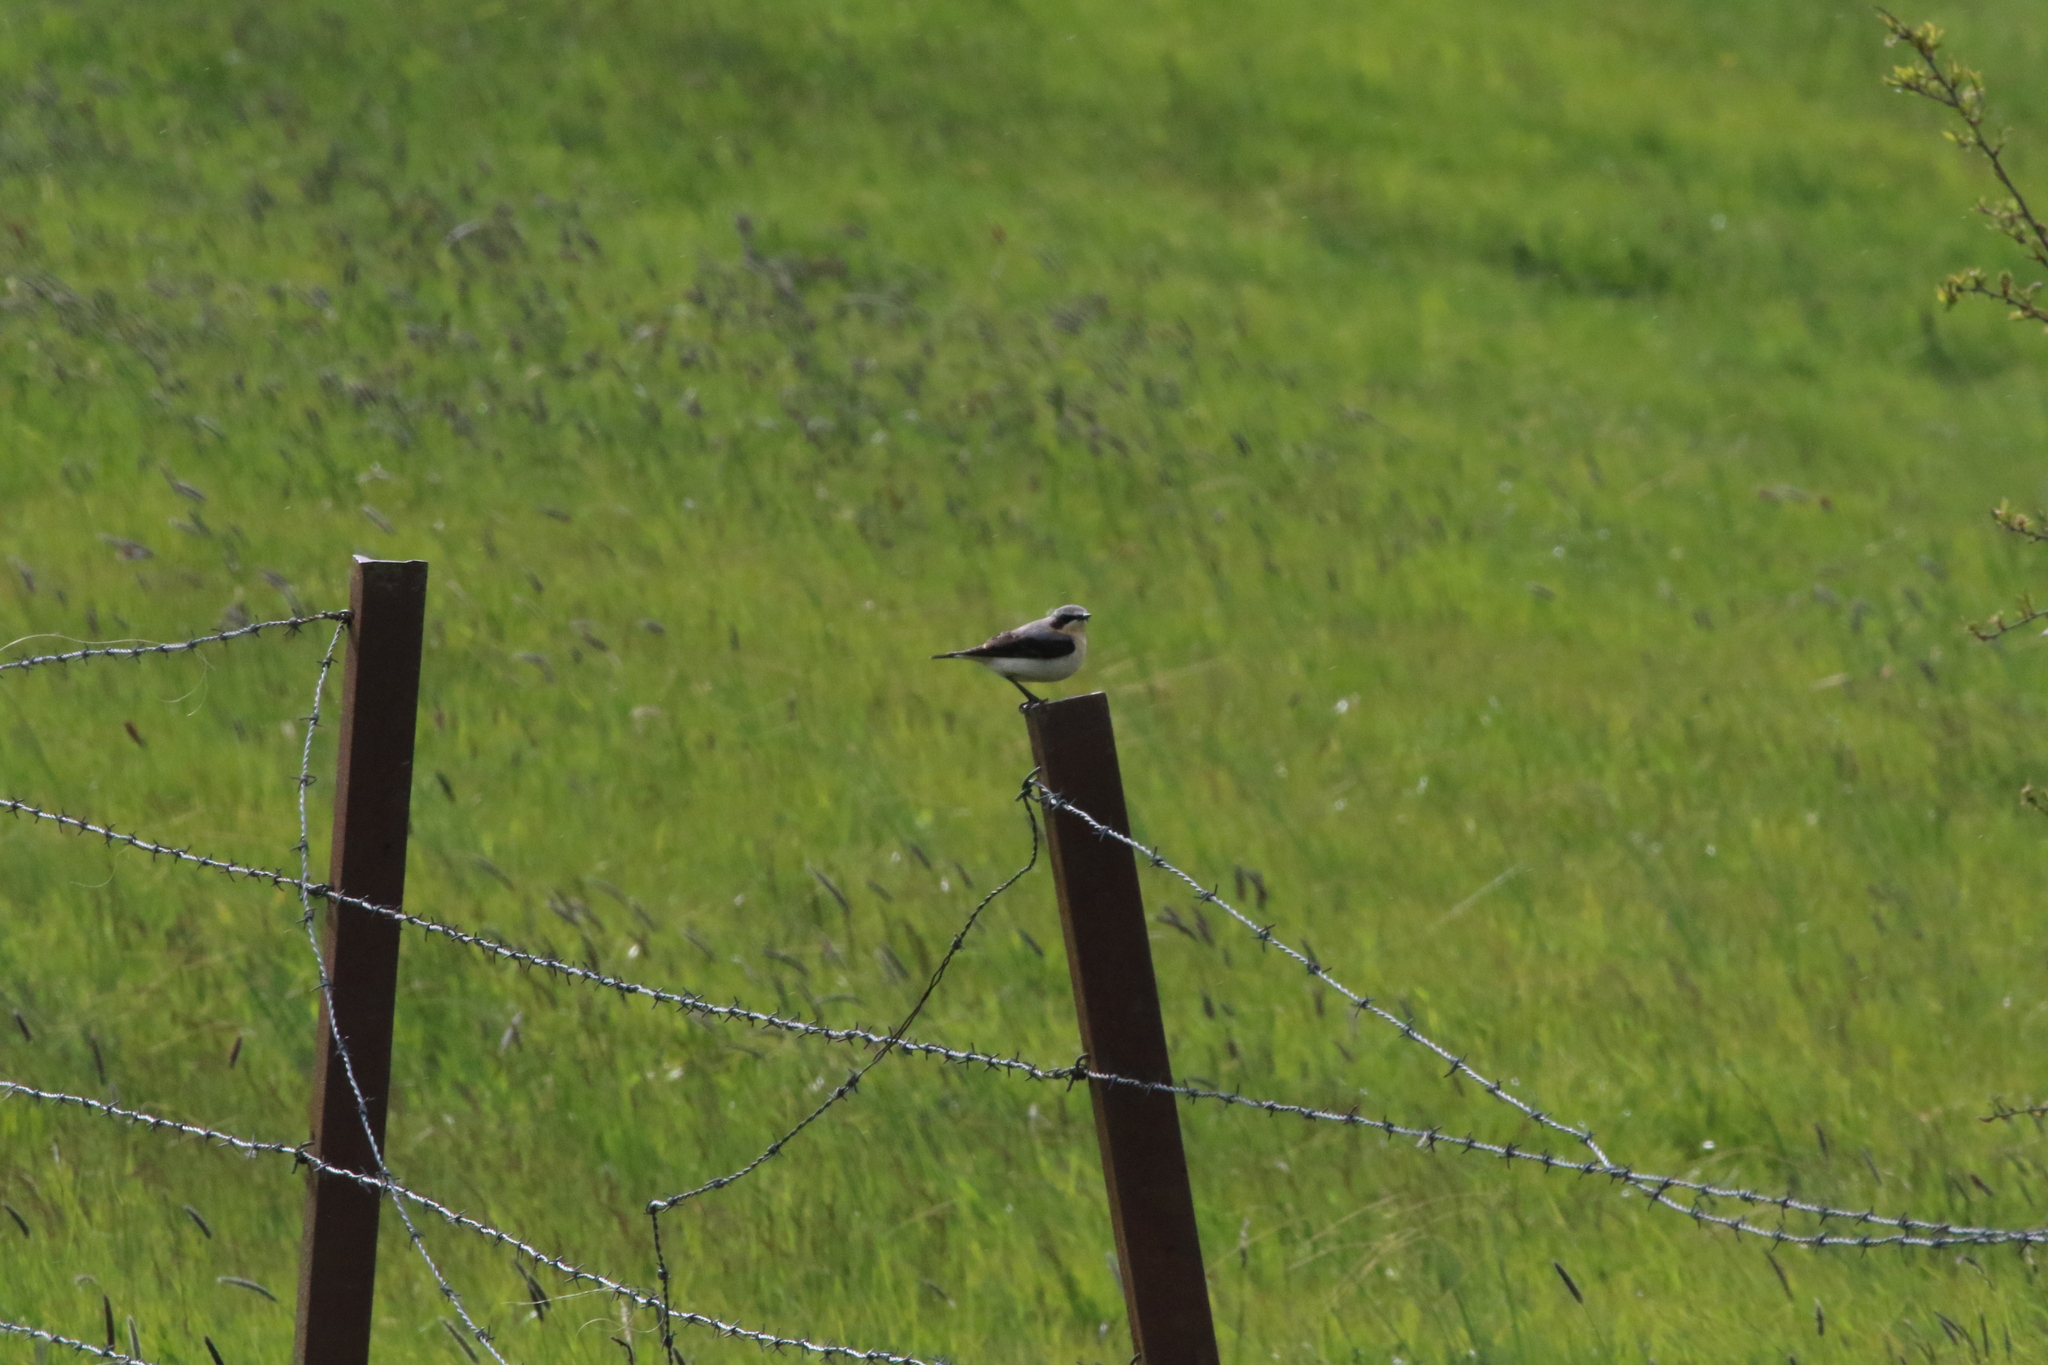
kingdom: Animalia
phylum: Chordata
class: Aves
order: Passeriformes
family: Muscicapidae
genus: Oenanthe
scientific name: Oenanthe oenanthe
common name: Northern wheatear
